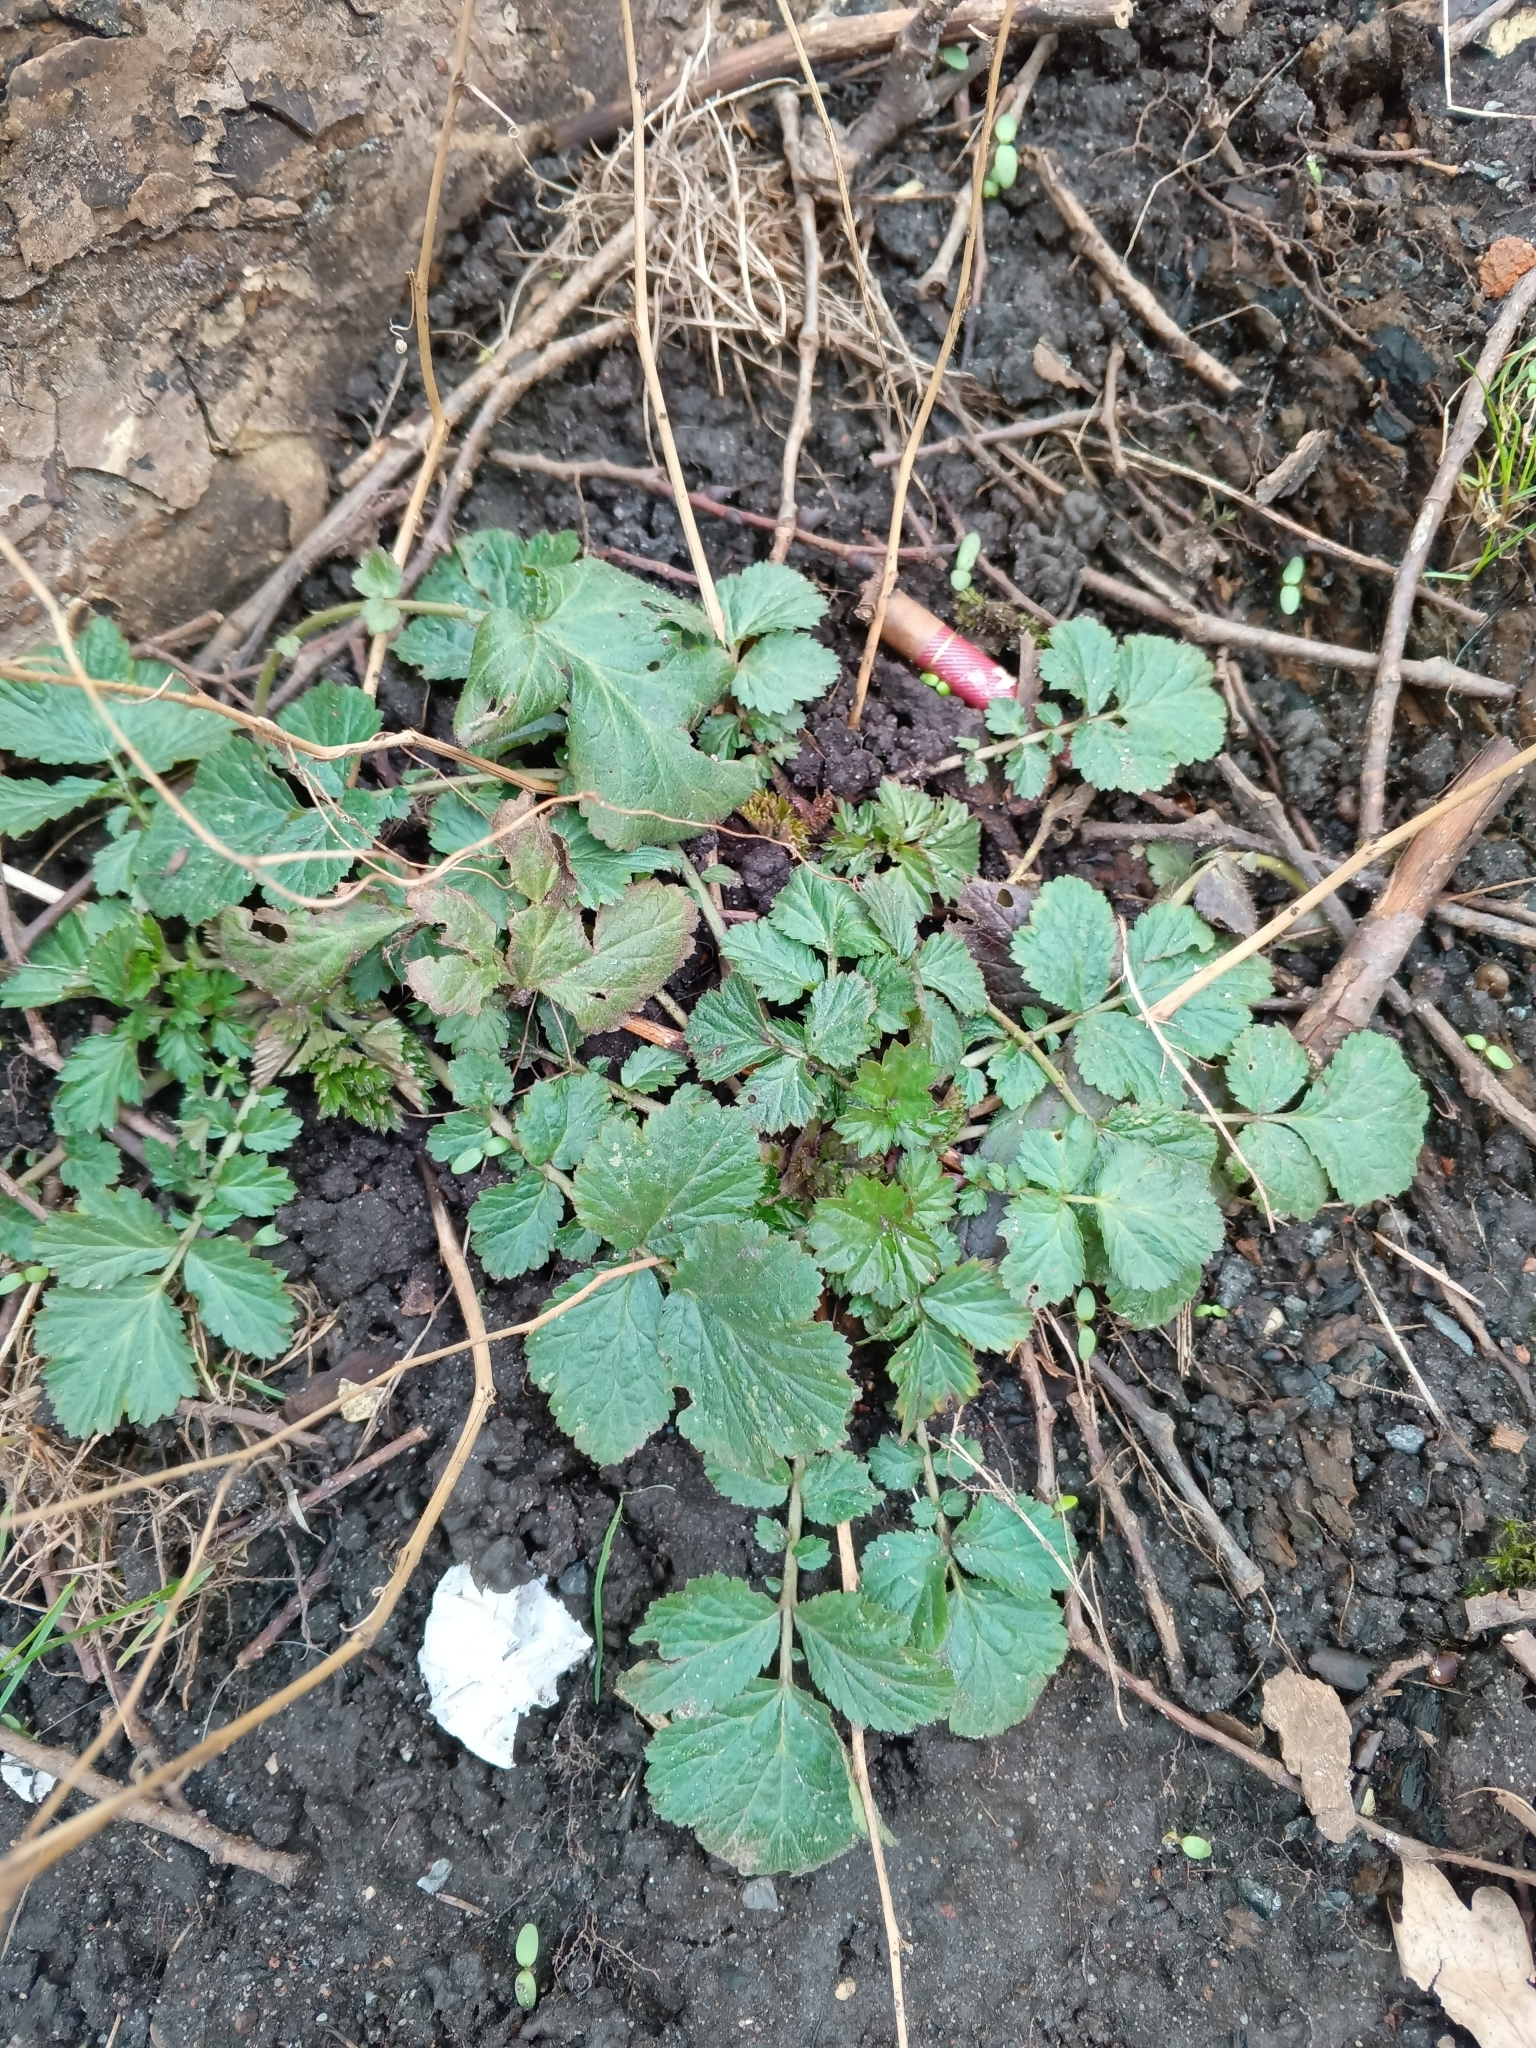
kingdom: Plantae
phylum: Tracheophyta
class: Magnoliopsida
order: Rosales
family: Rosaceae
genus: Geum
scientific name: Geum urbanum
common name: Wood avens
